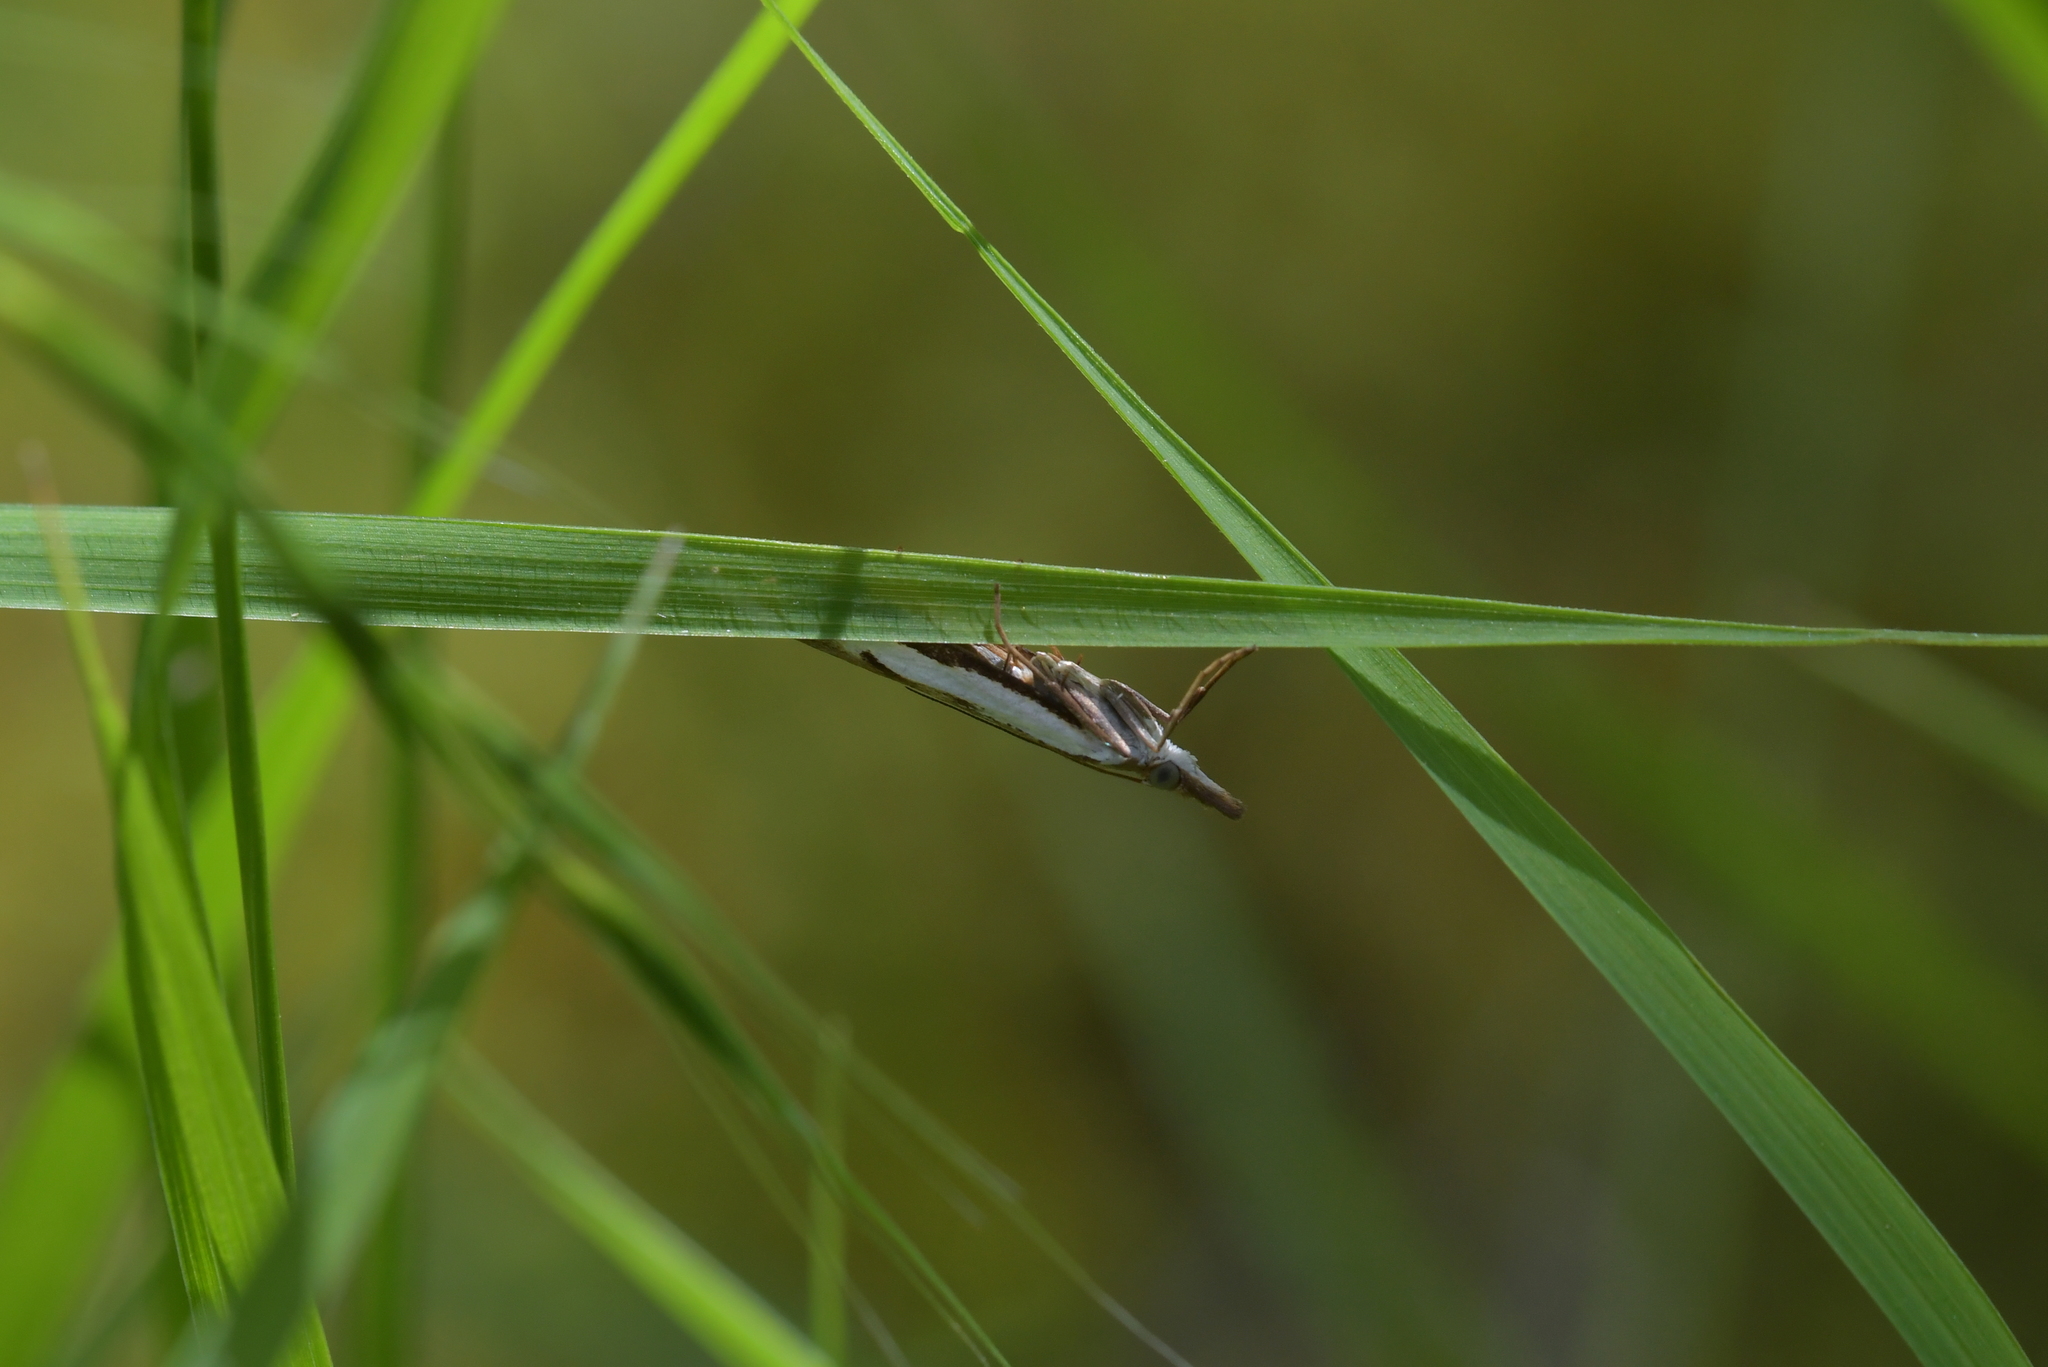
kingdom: Animalia
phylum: Arthropoda
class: Insecta
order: Lepidoptera
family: Crambidae
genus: Orocrambus
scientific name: Orocrambus flexuosellus
